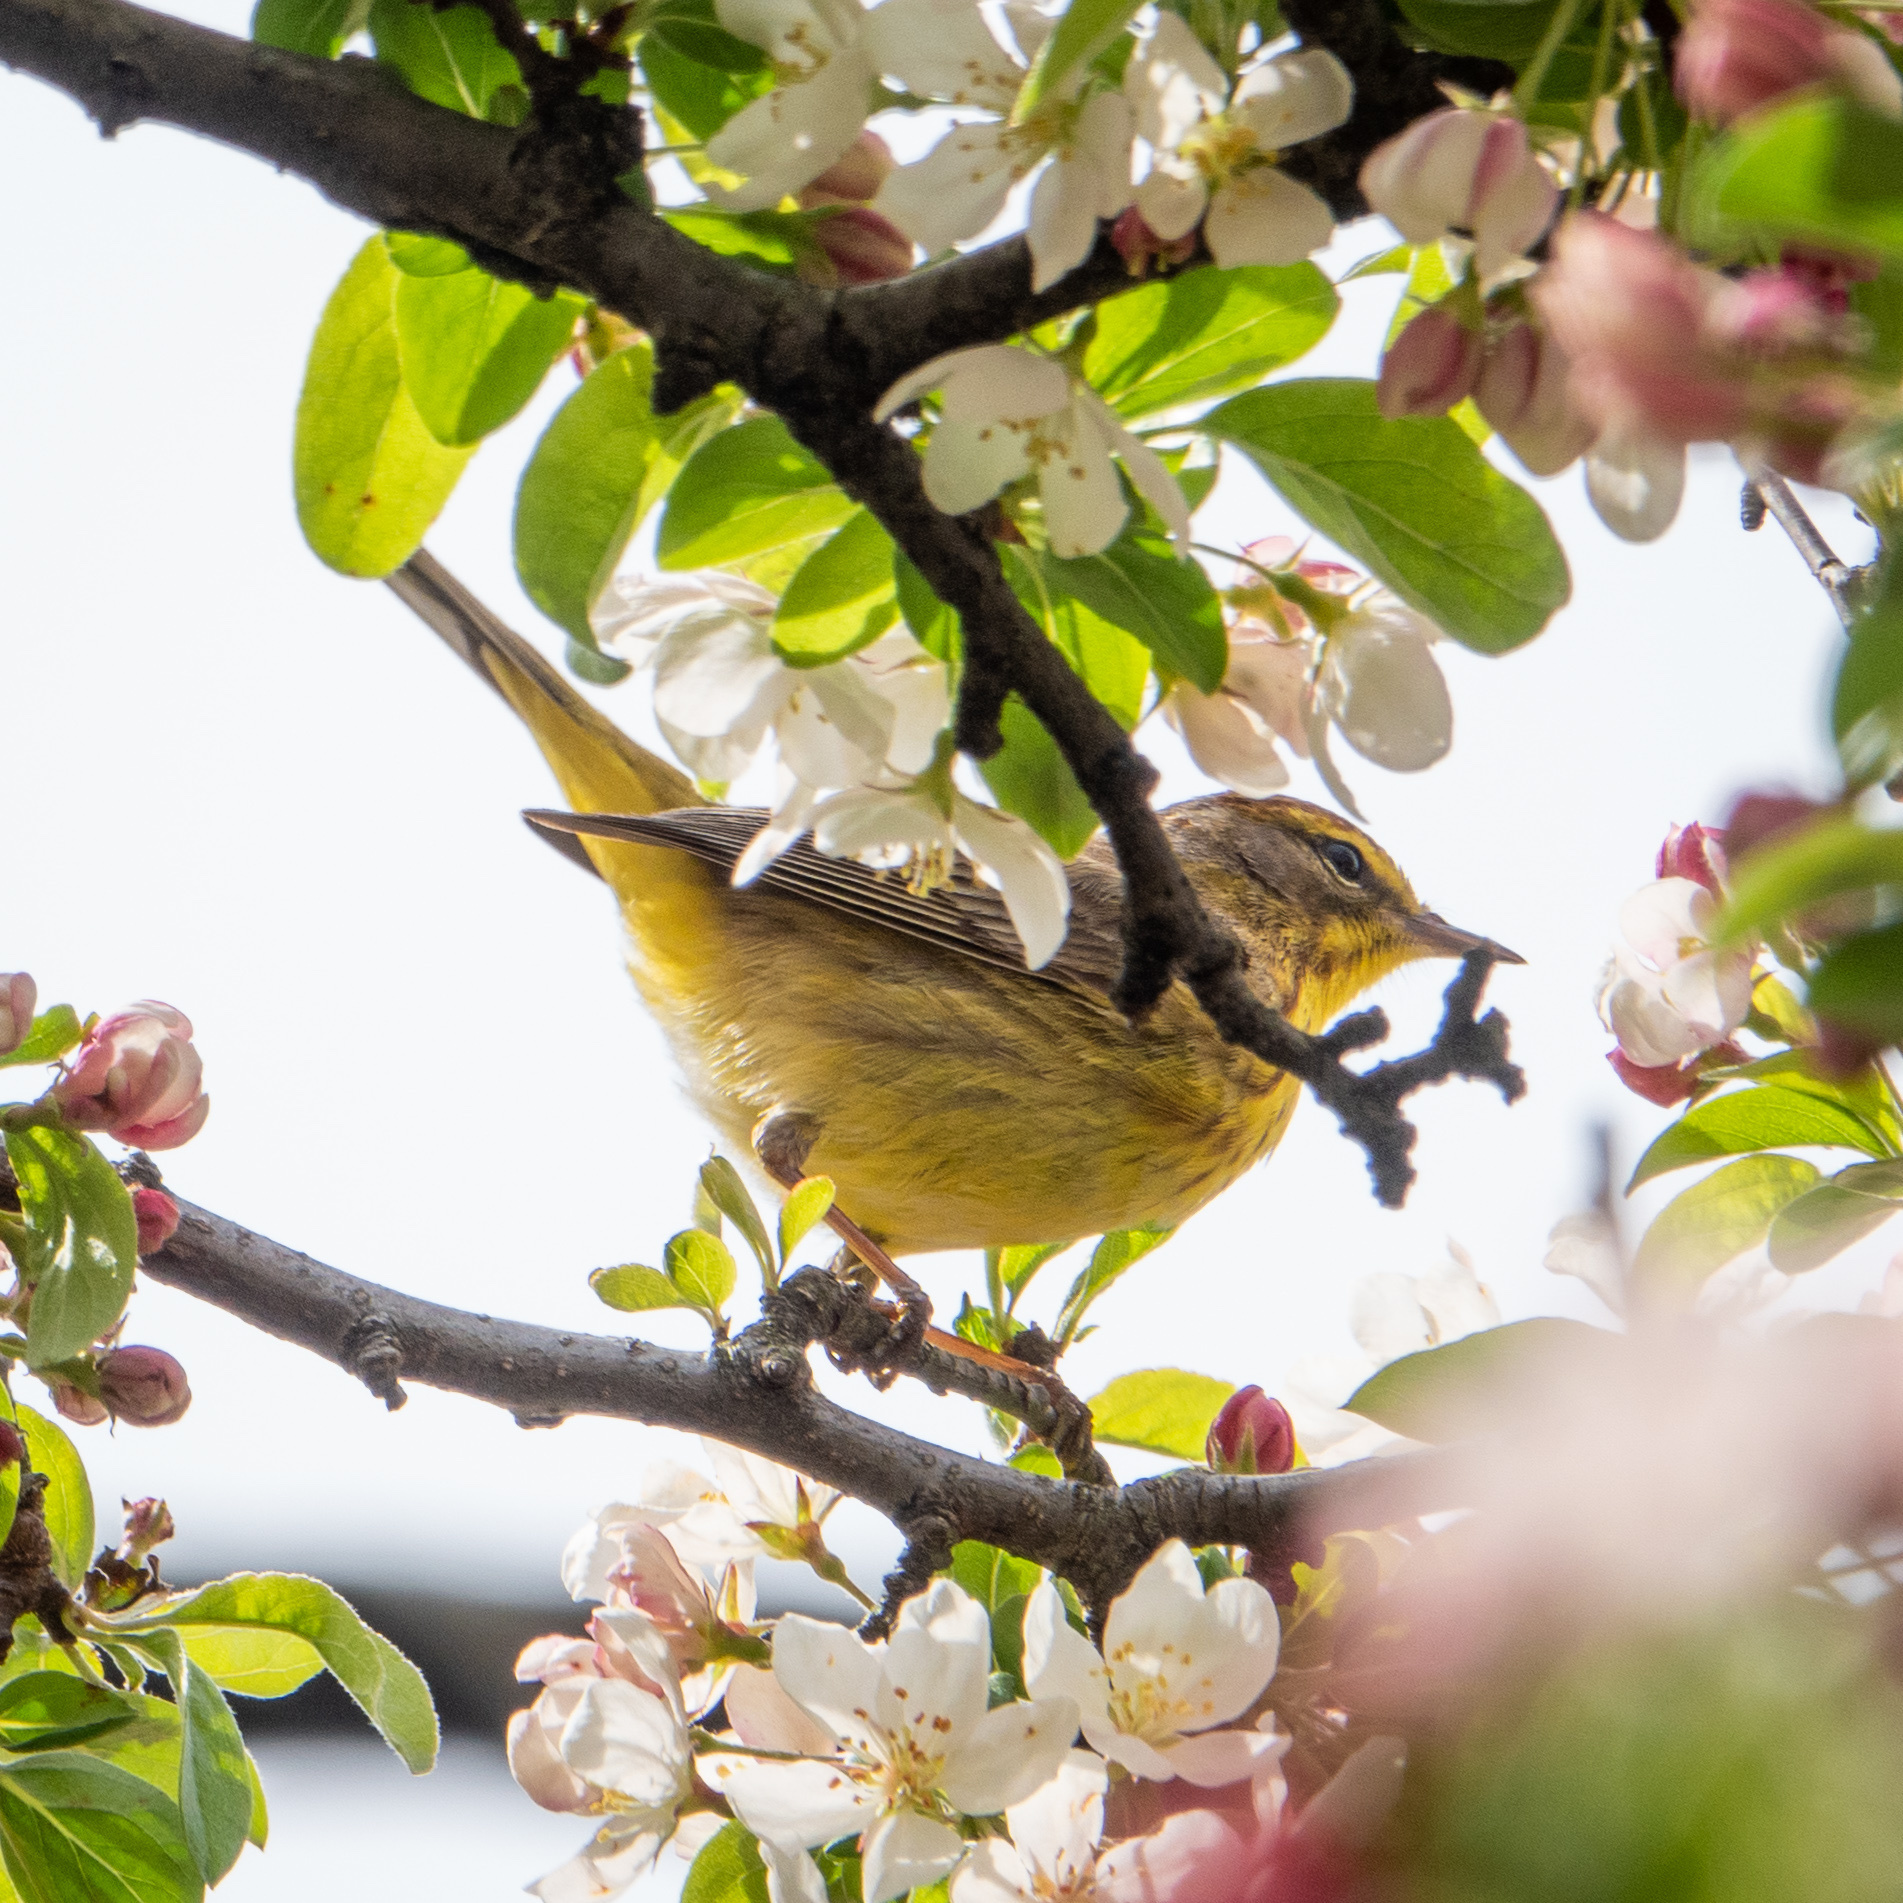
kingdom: Animalia
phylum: Chordata
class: Aves
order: Passeriformes
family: Parulidae
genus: Setophaga
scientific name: Setophaga palmarum
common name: Palm warbler
